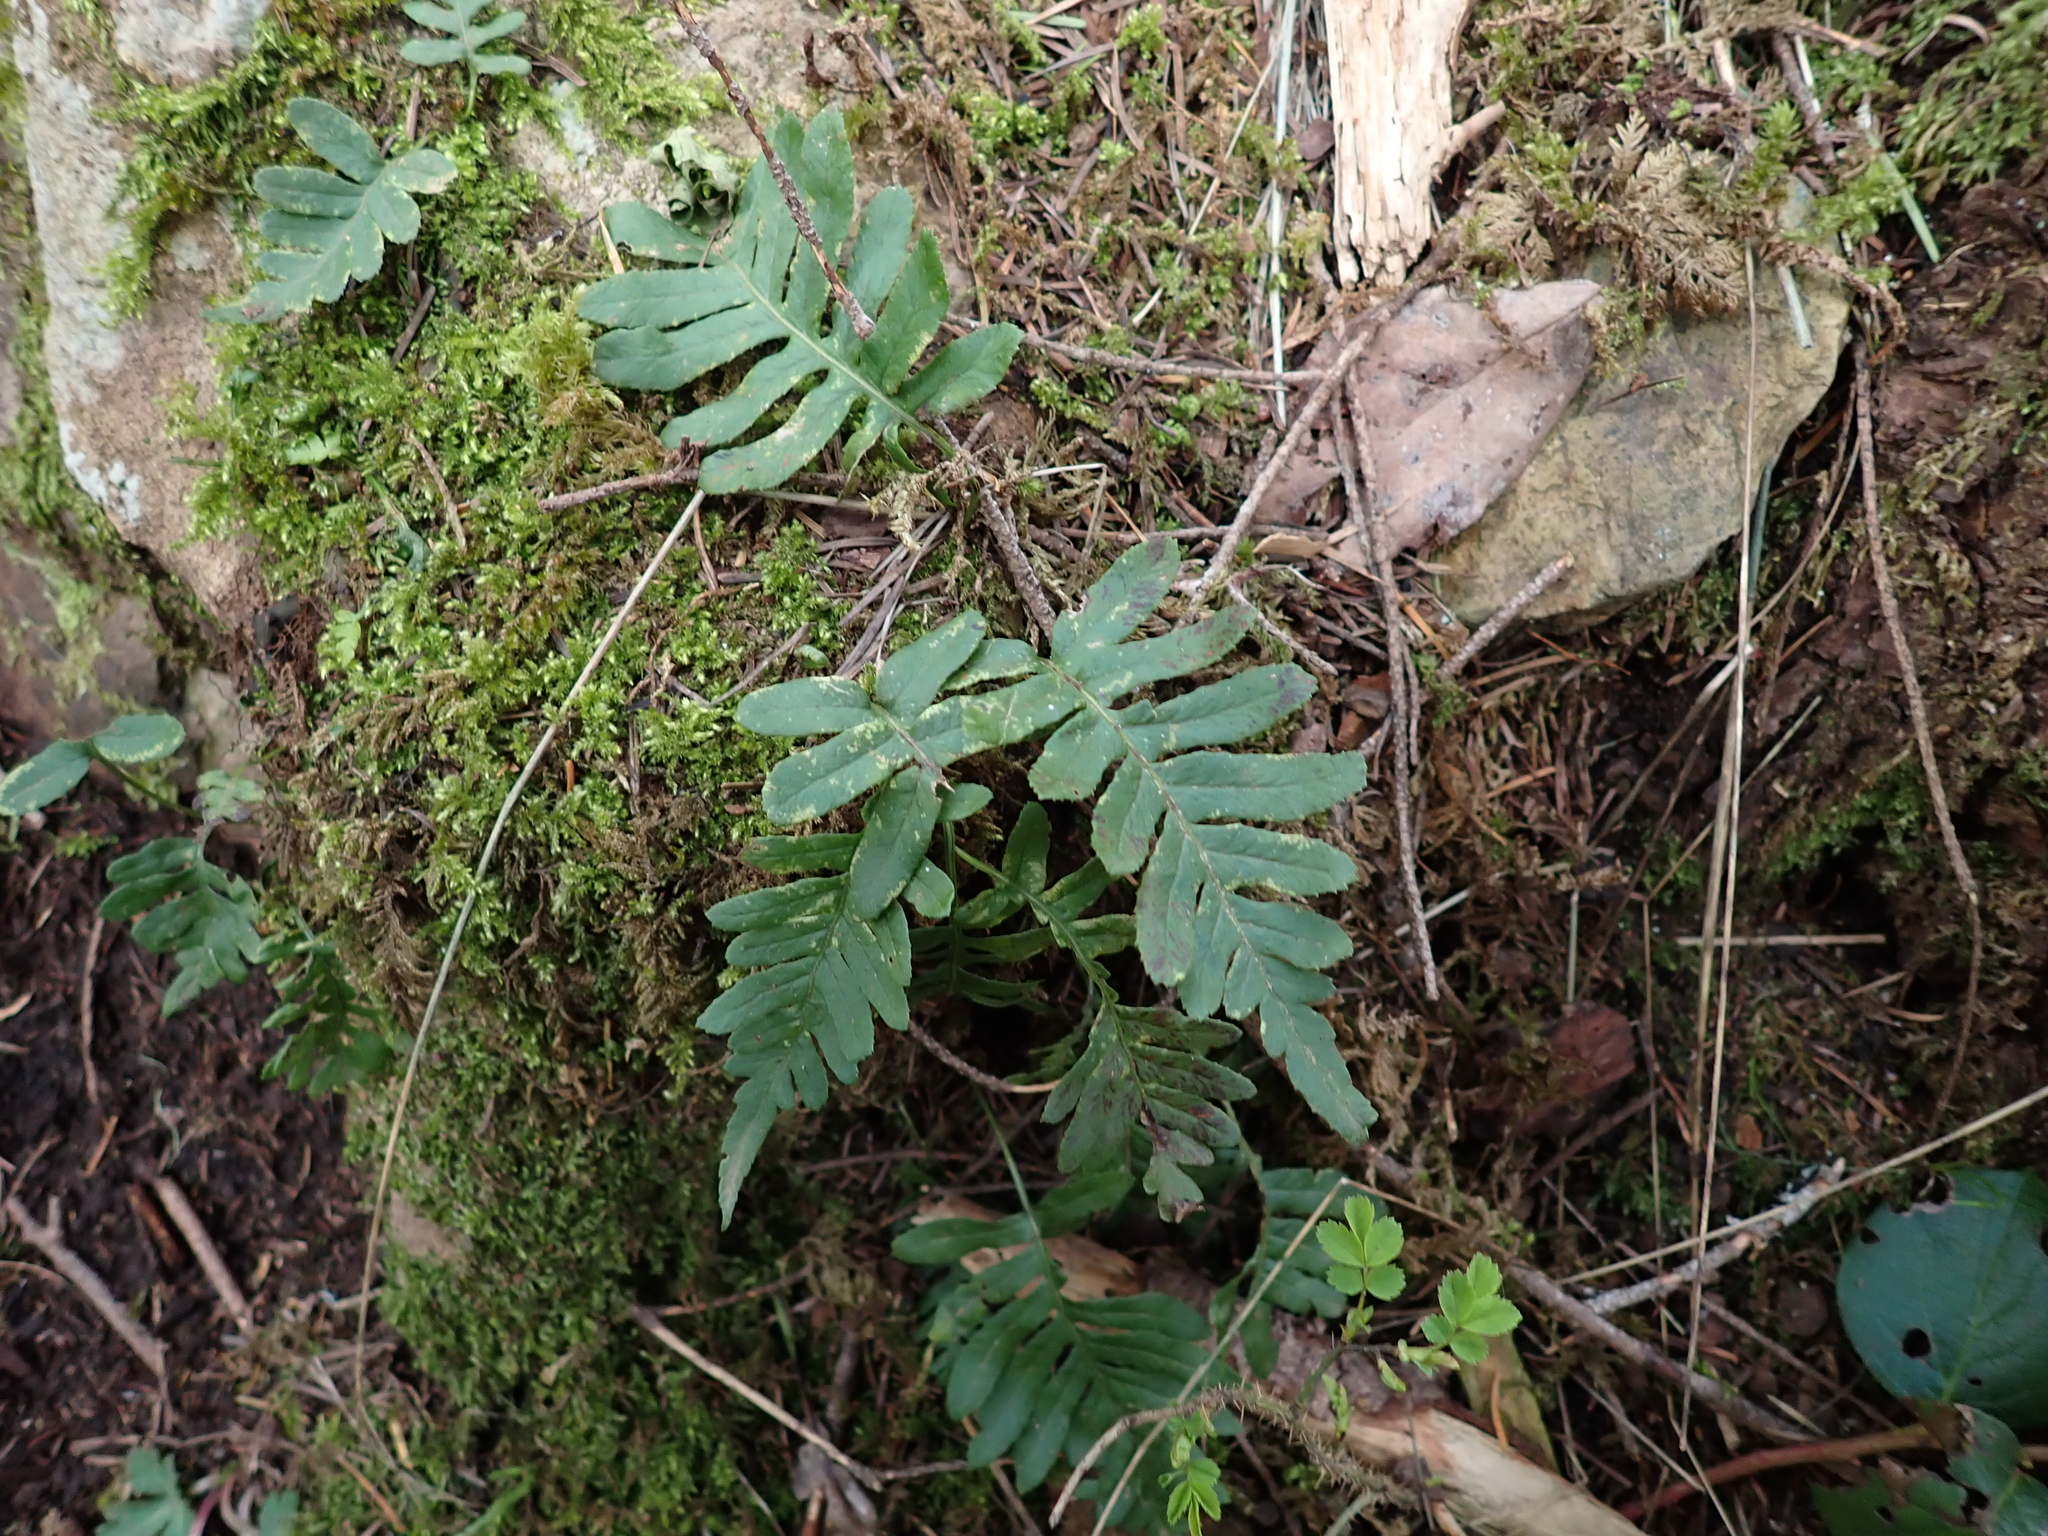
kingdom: Plantae
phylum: Tracheophyta
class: Polypodiopsida
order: Polypodiales
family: Polypodiaceae
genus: Polypodium
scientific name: Polypodium glycyrrhiza
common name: Licorice fern
